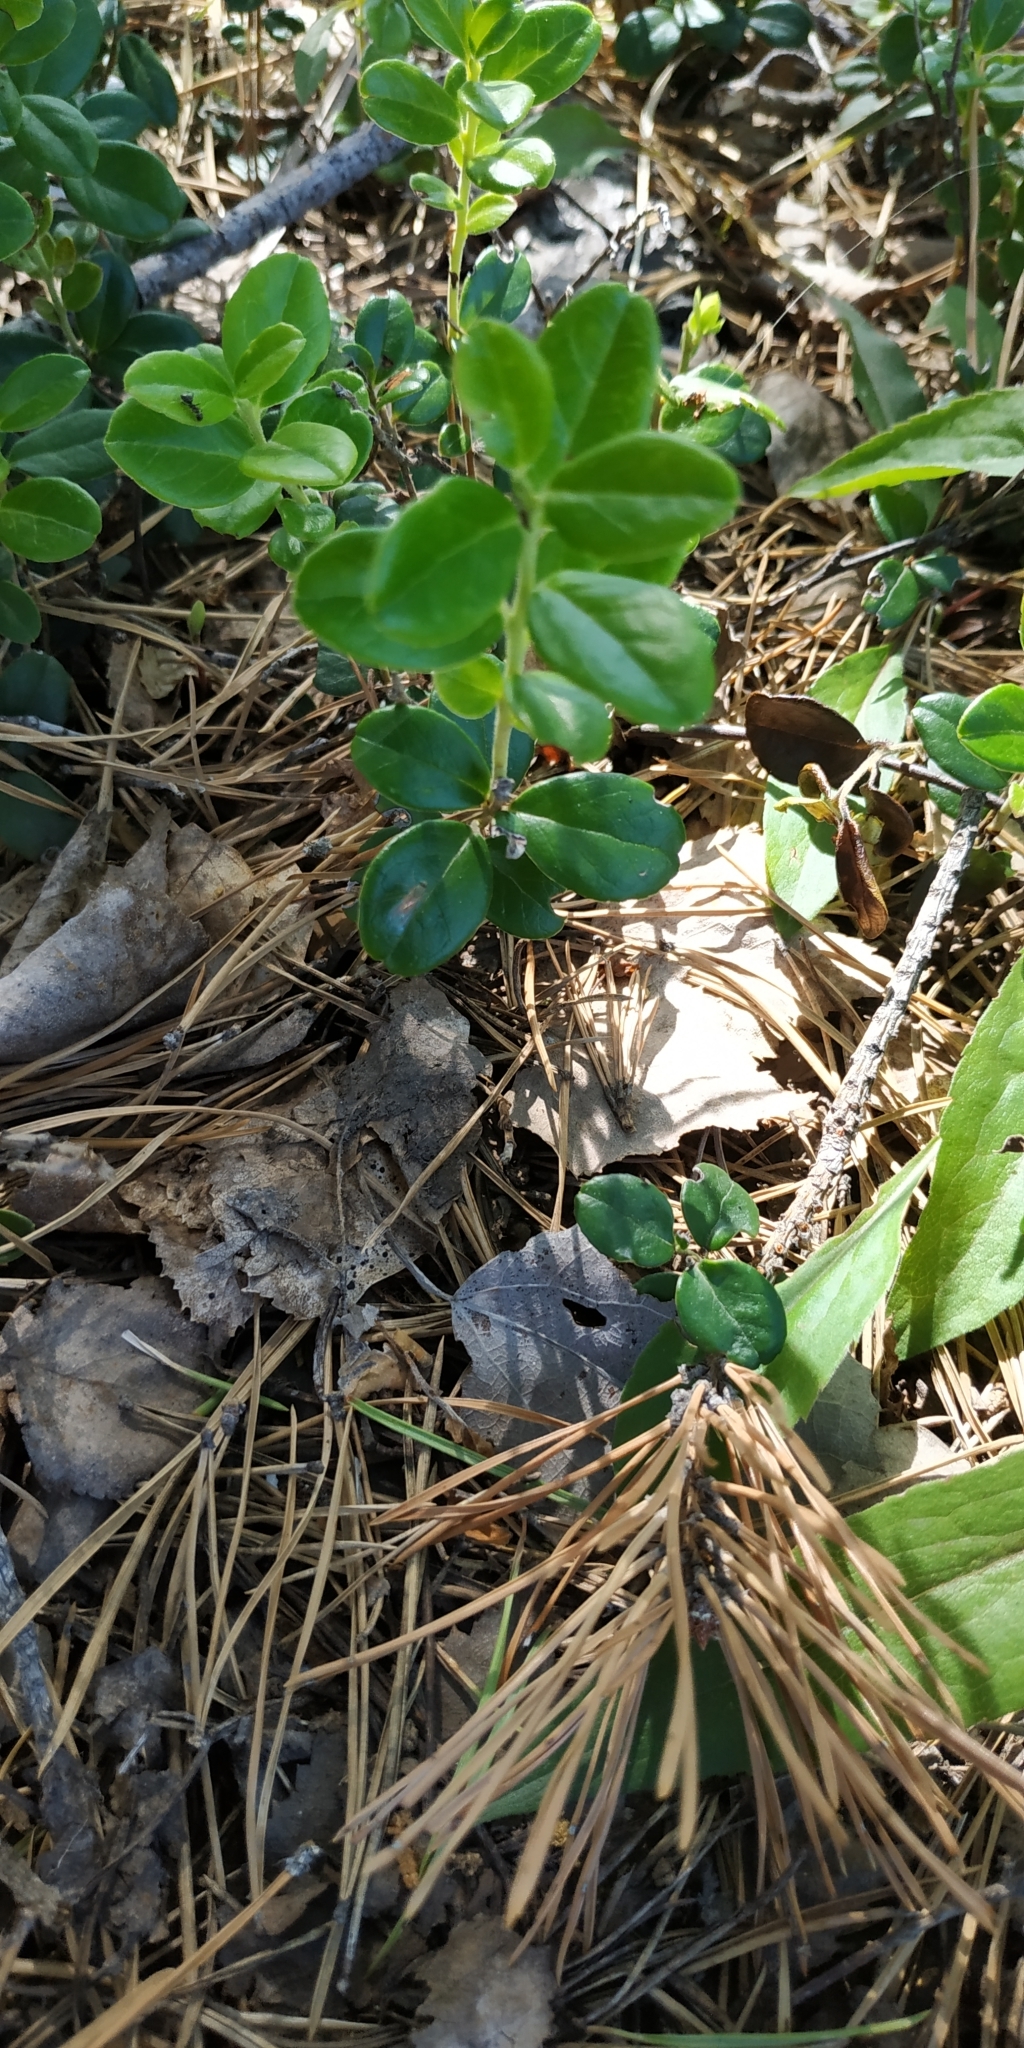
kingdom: Plantae
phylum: Tracheophyta
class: Magnoliopsida
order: Ericales
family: Ericaceae
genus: Vaccinium
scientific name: Vaccinium vitis-idaea
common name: Cowberry
